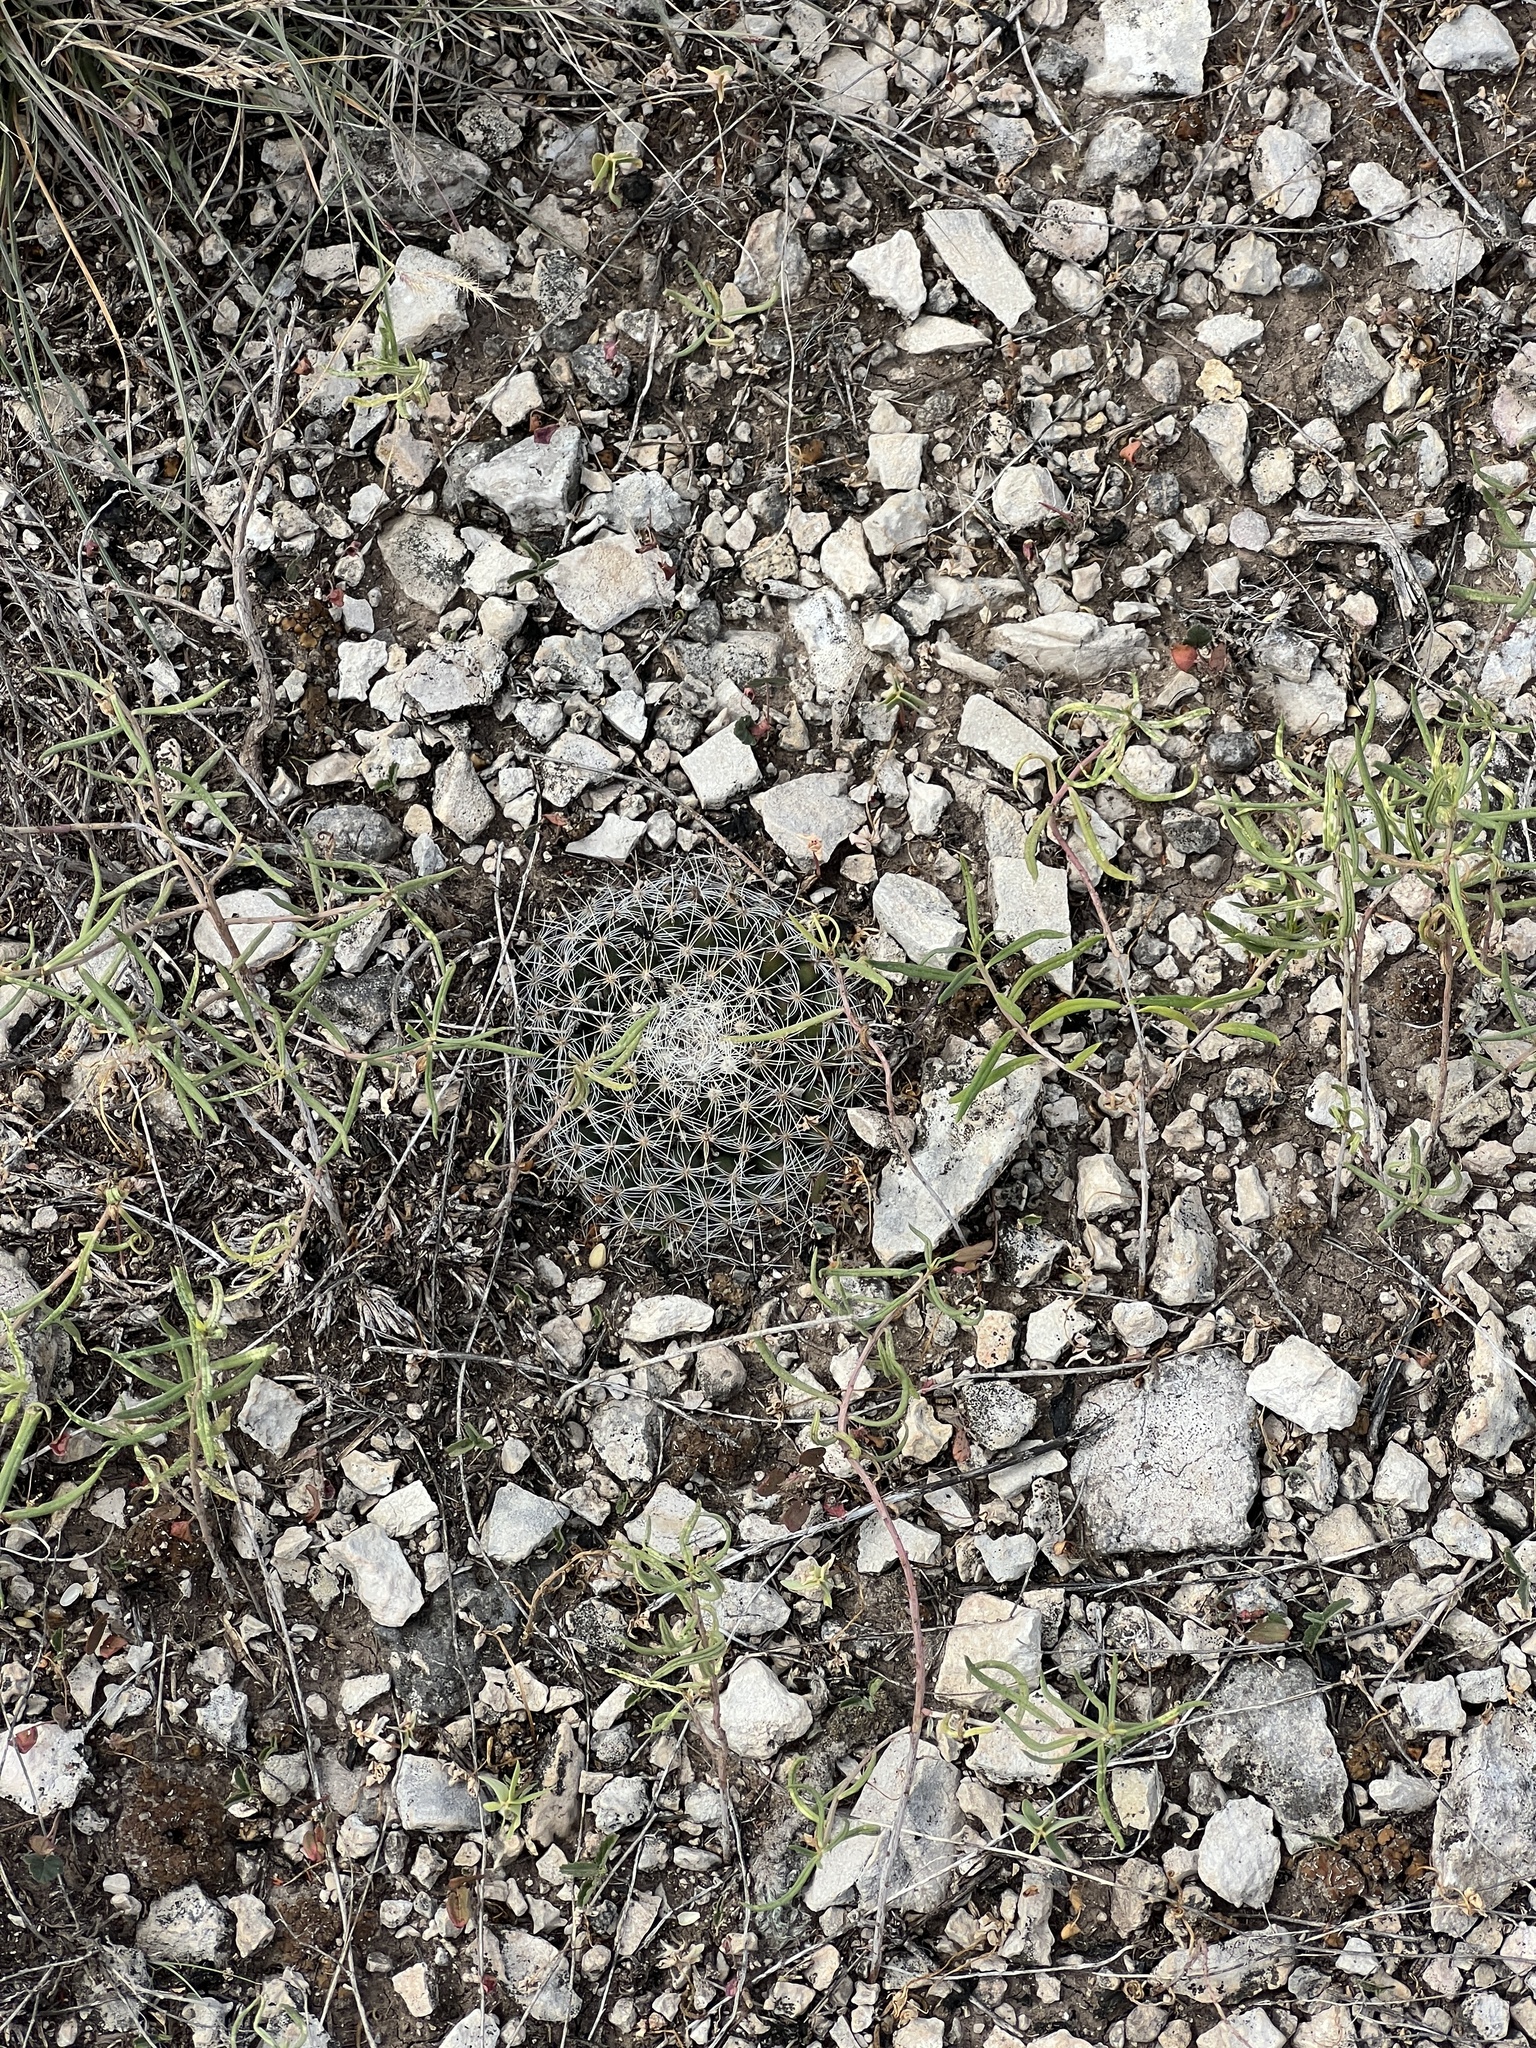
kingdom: Plantae
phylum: Tracheophyta
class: Magnoliopsida
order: Caryophyllales
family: Cactaceae
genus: Mammillaria
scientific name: Mammillaria heyderi
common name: Little nipple cactus
